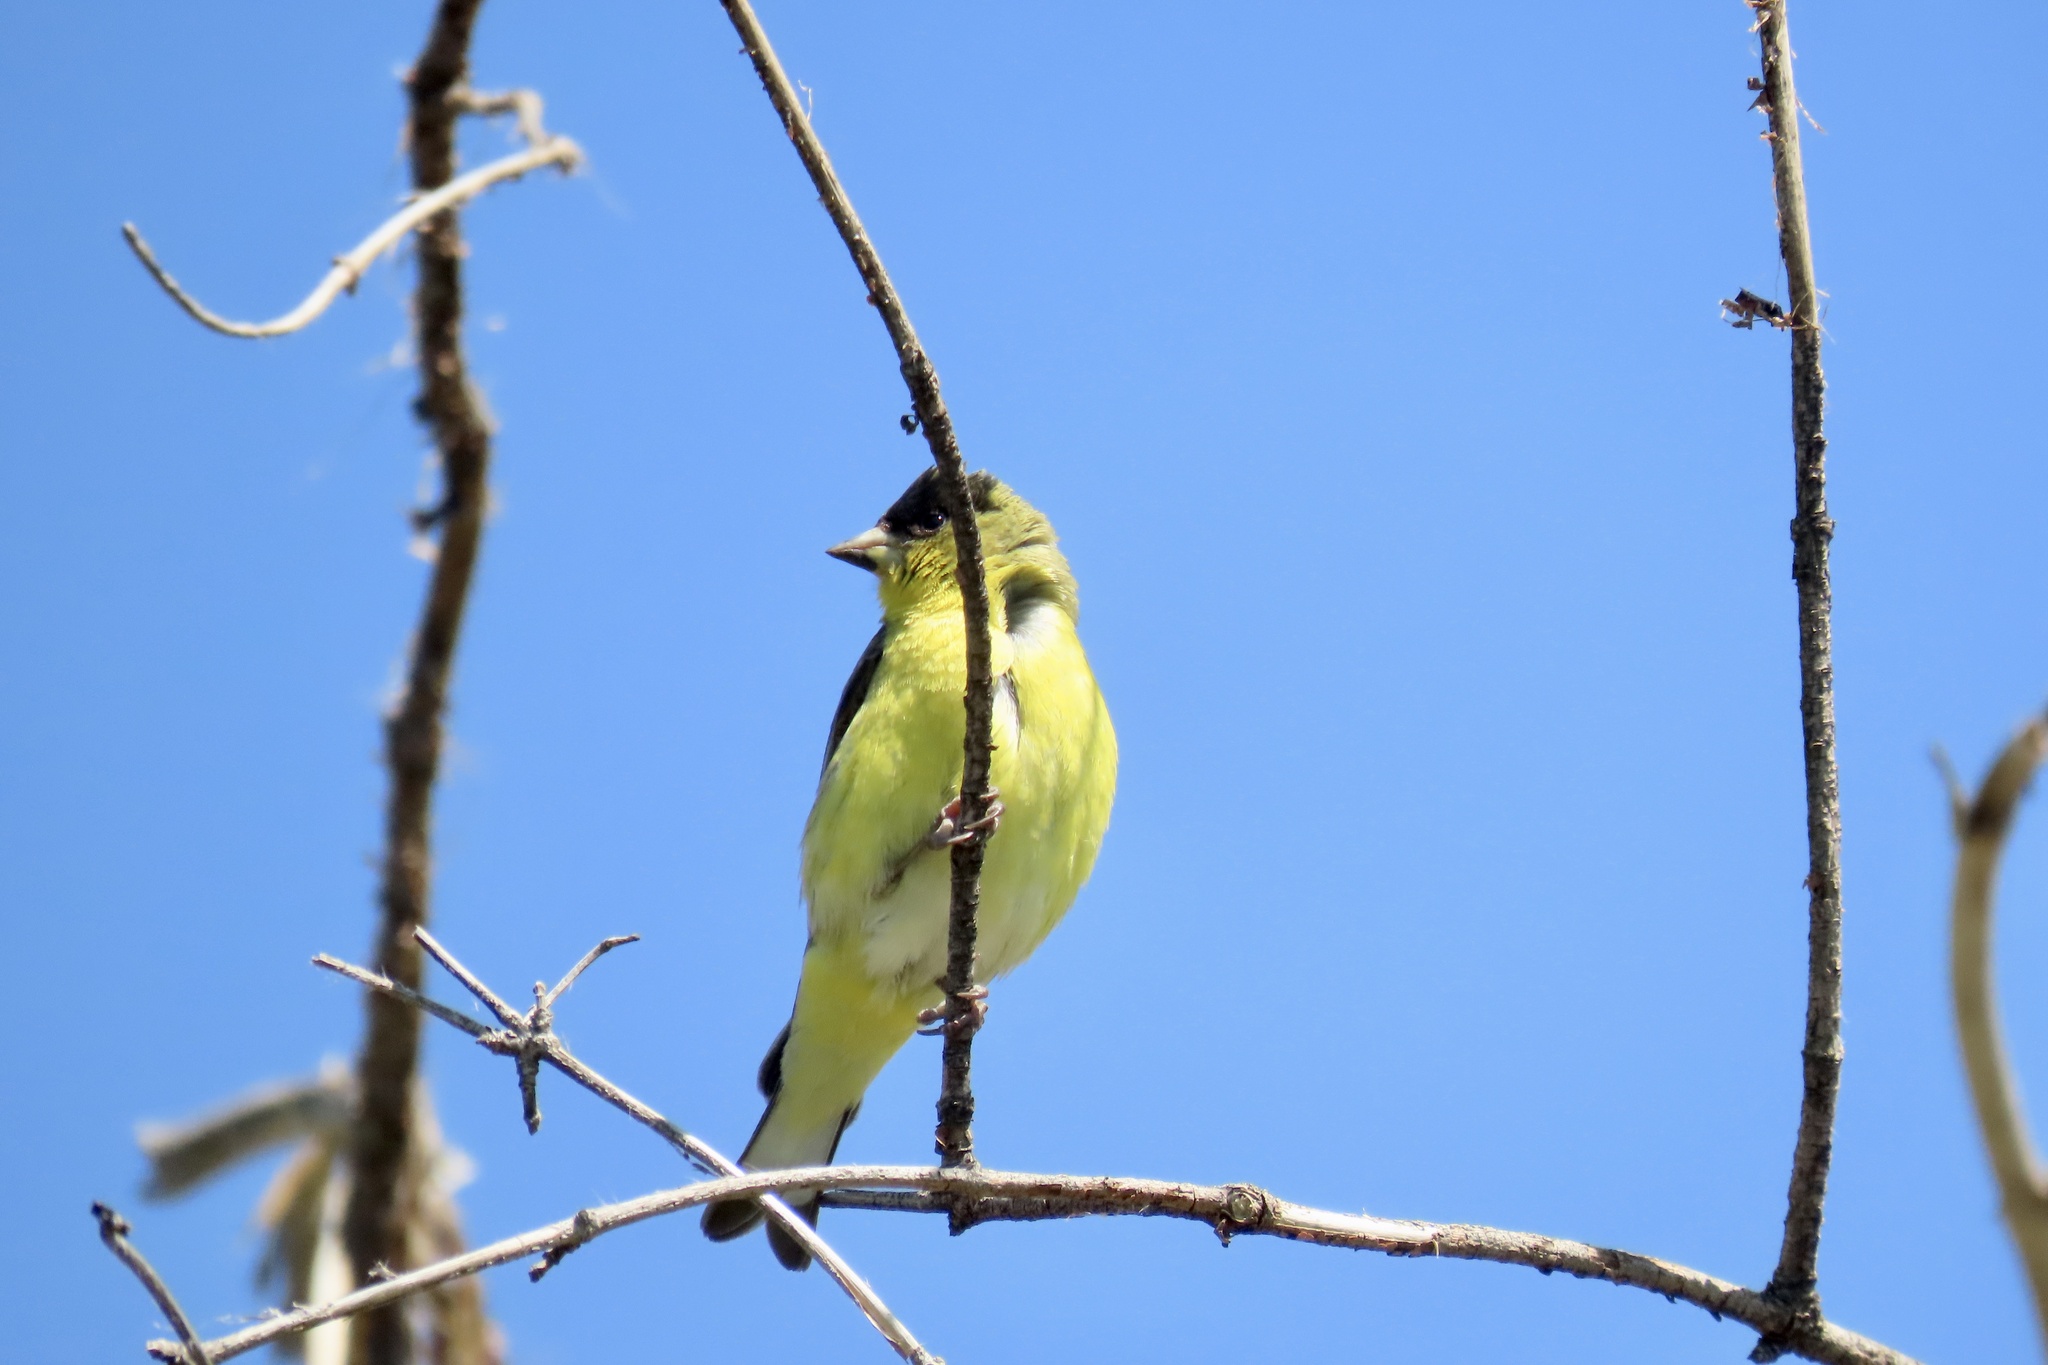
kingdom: Animalia
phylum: Chordata
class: Aves
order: Passeriformes
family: Fringillidae
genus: Spinus
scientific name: Spinus psaltria
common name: Lesser goldfinch
